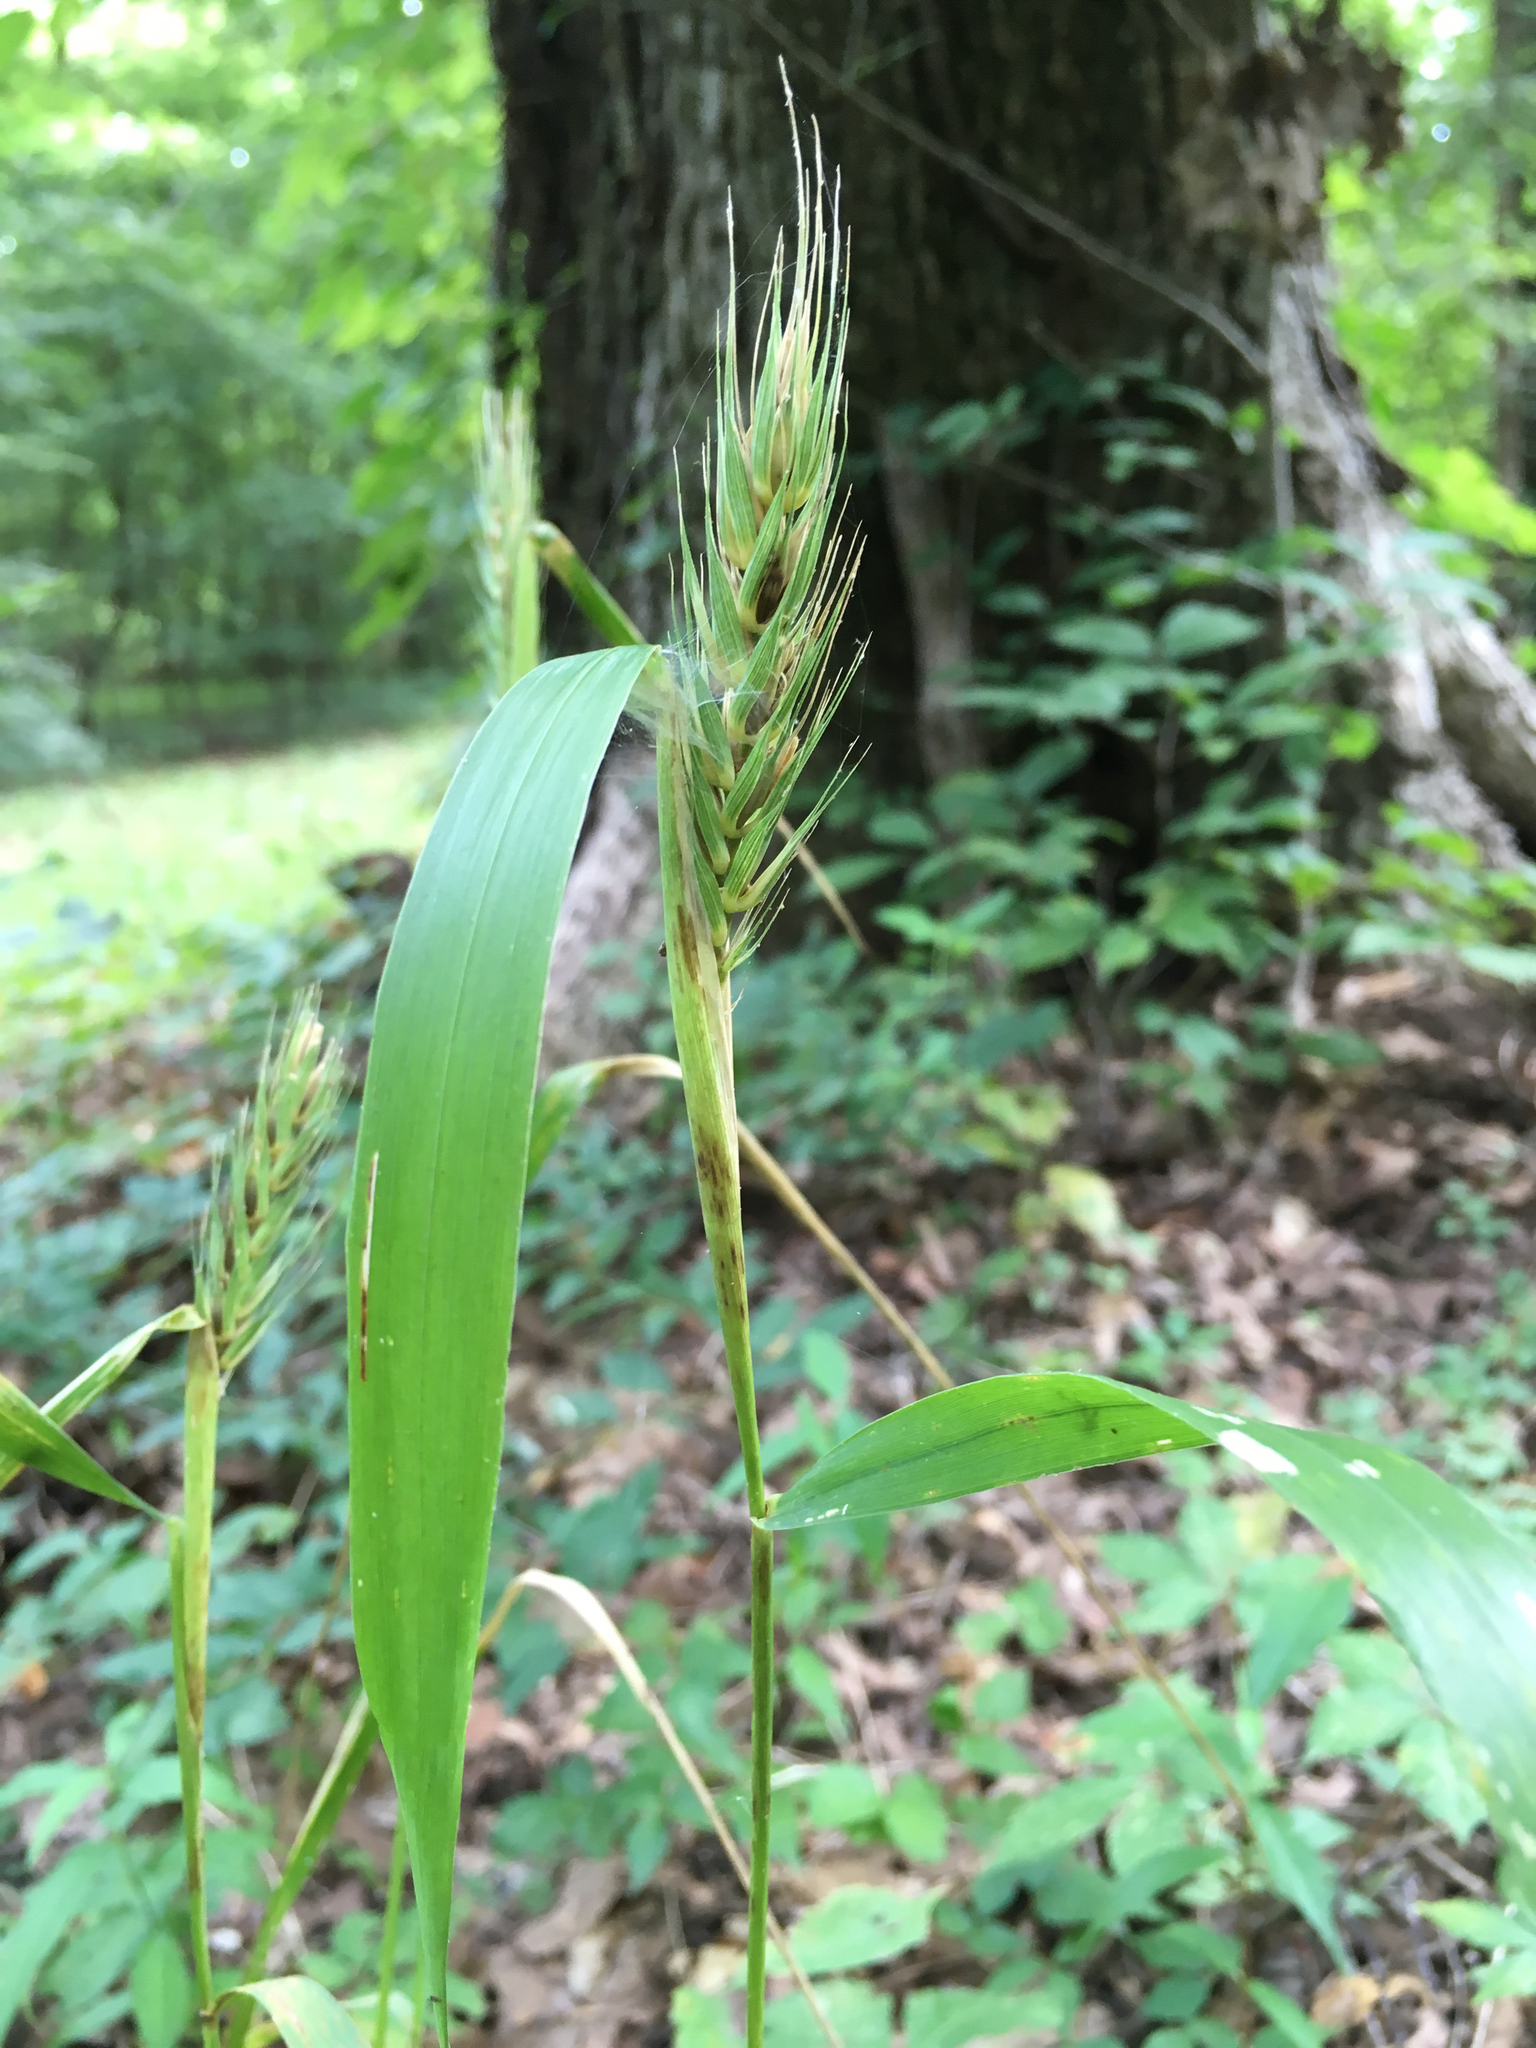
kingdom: Plantae
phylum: Tracheophyta
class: Liliopsida
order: Poales
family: Poaceae
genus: Elymus
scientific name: Elymus virginicus
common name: Common eastern wildrye
